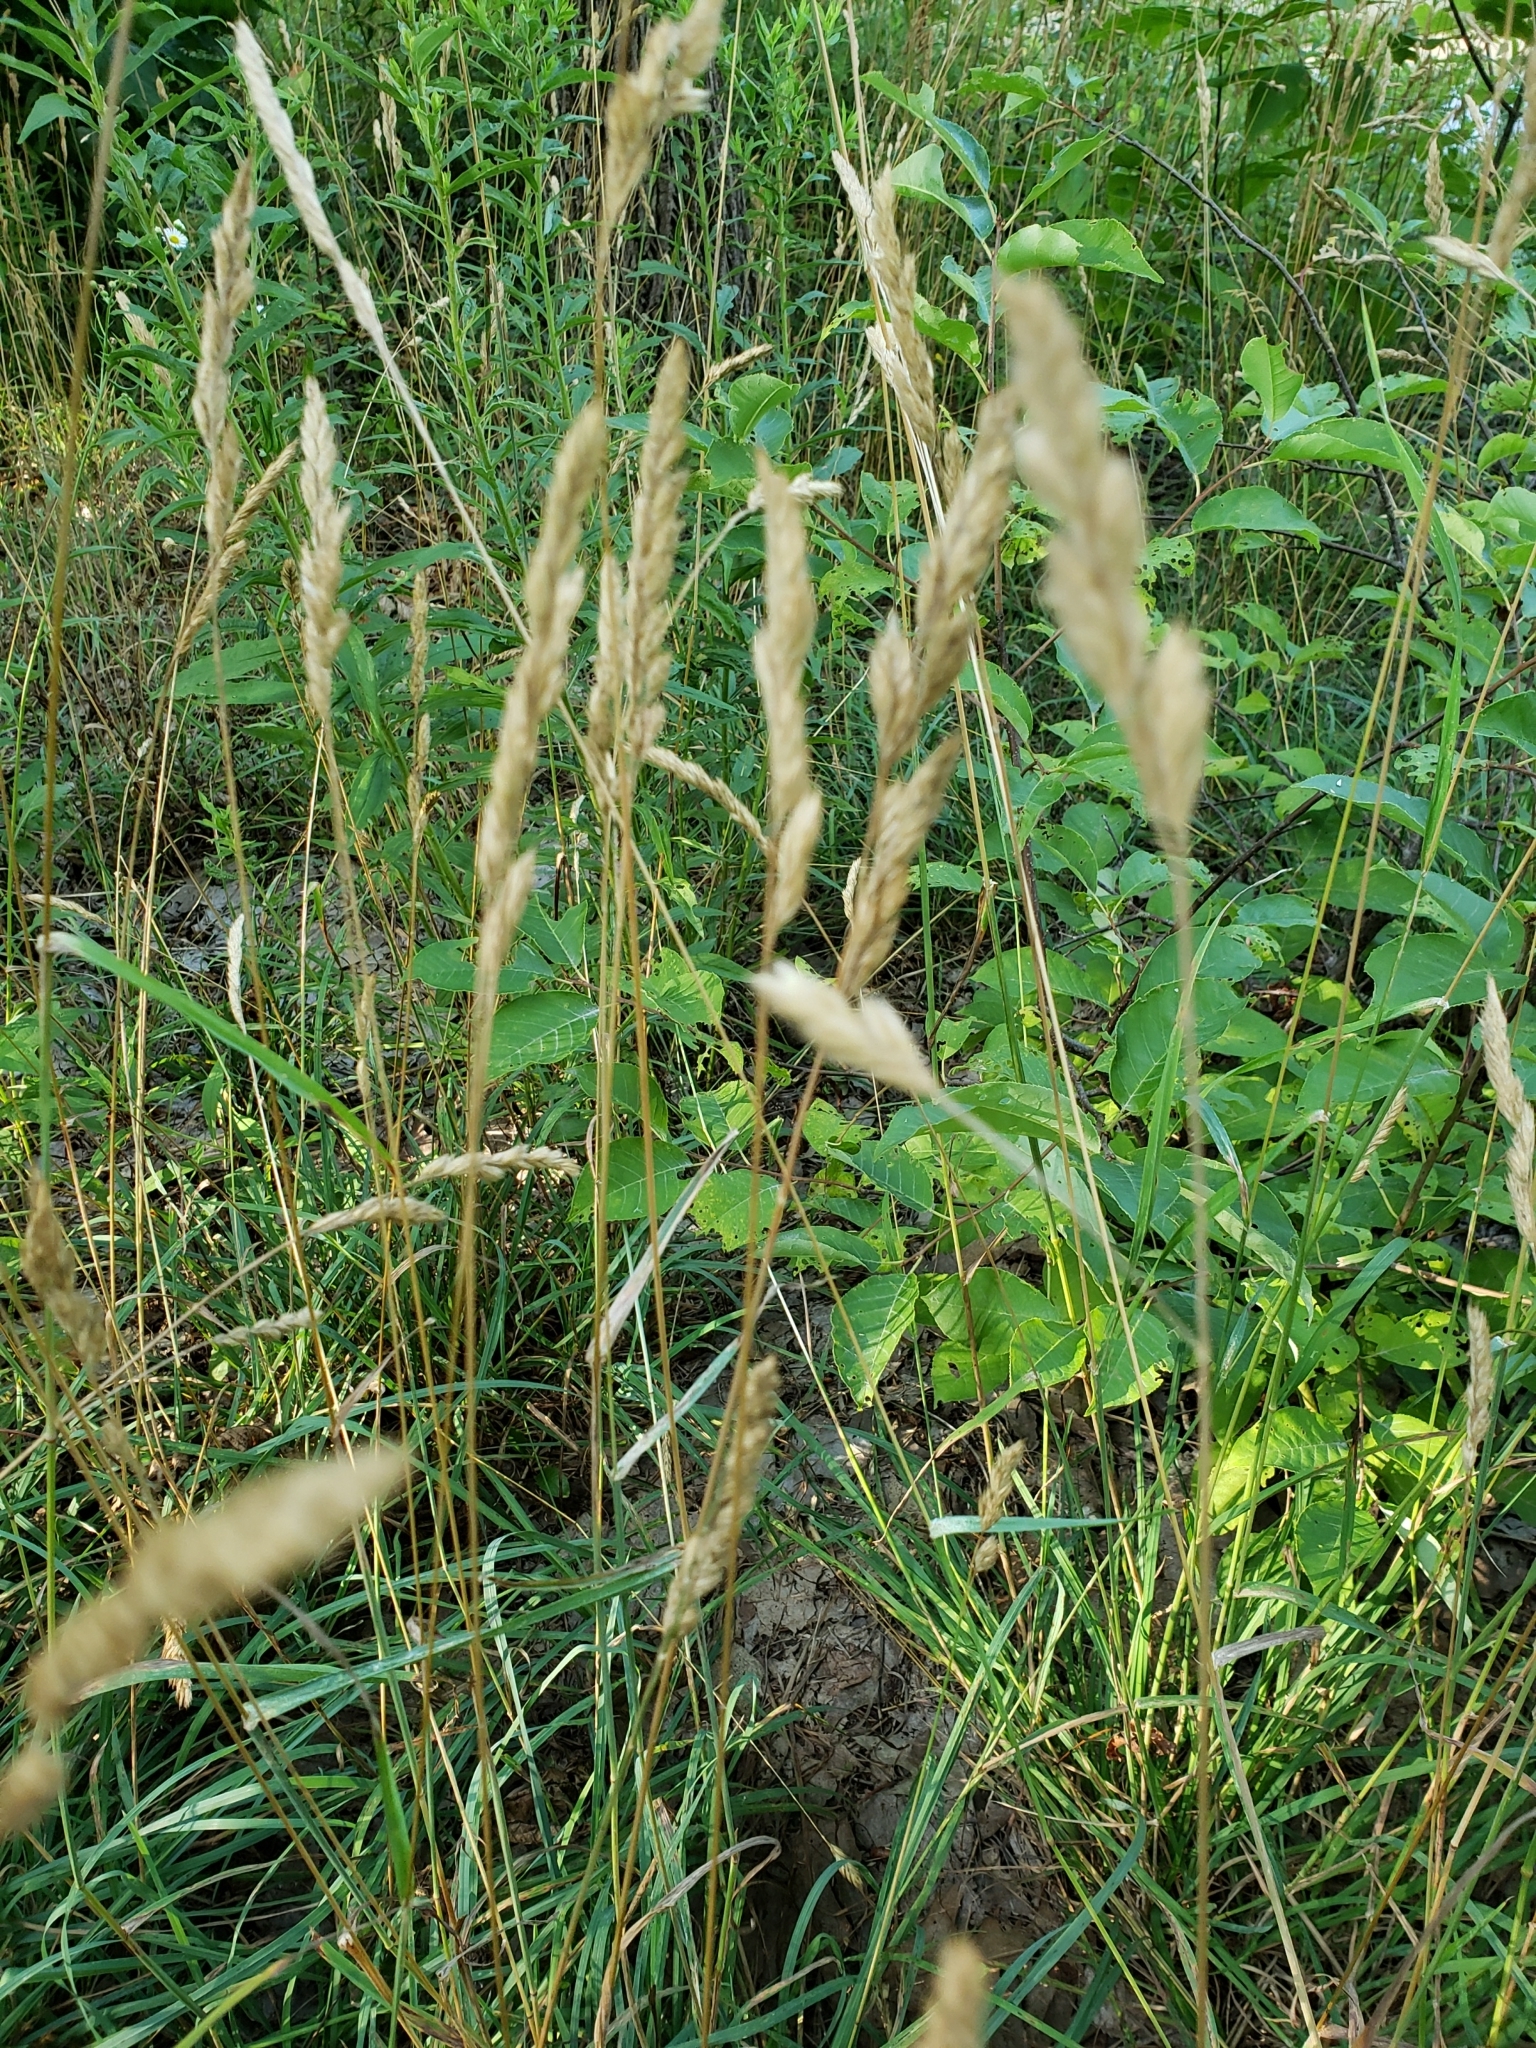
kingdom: Plantae
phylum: Tracheophyta
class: Liliopsida
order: Poales
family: Poaceae
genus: Dactylis
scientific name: Dactylis glomerata
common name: Orchardgrass
